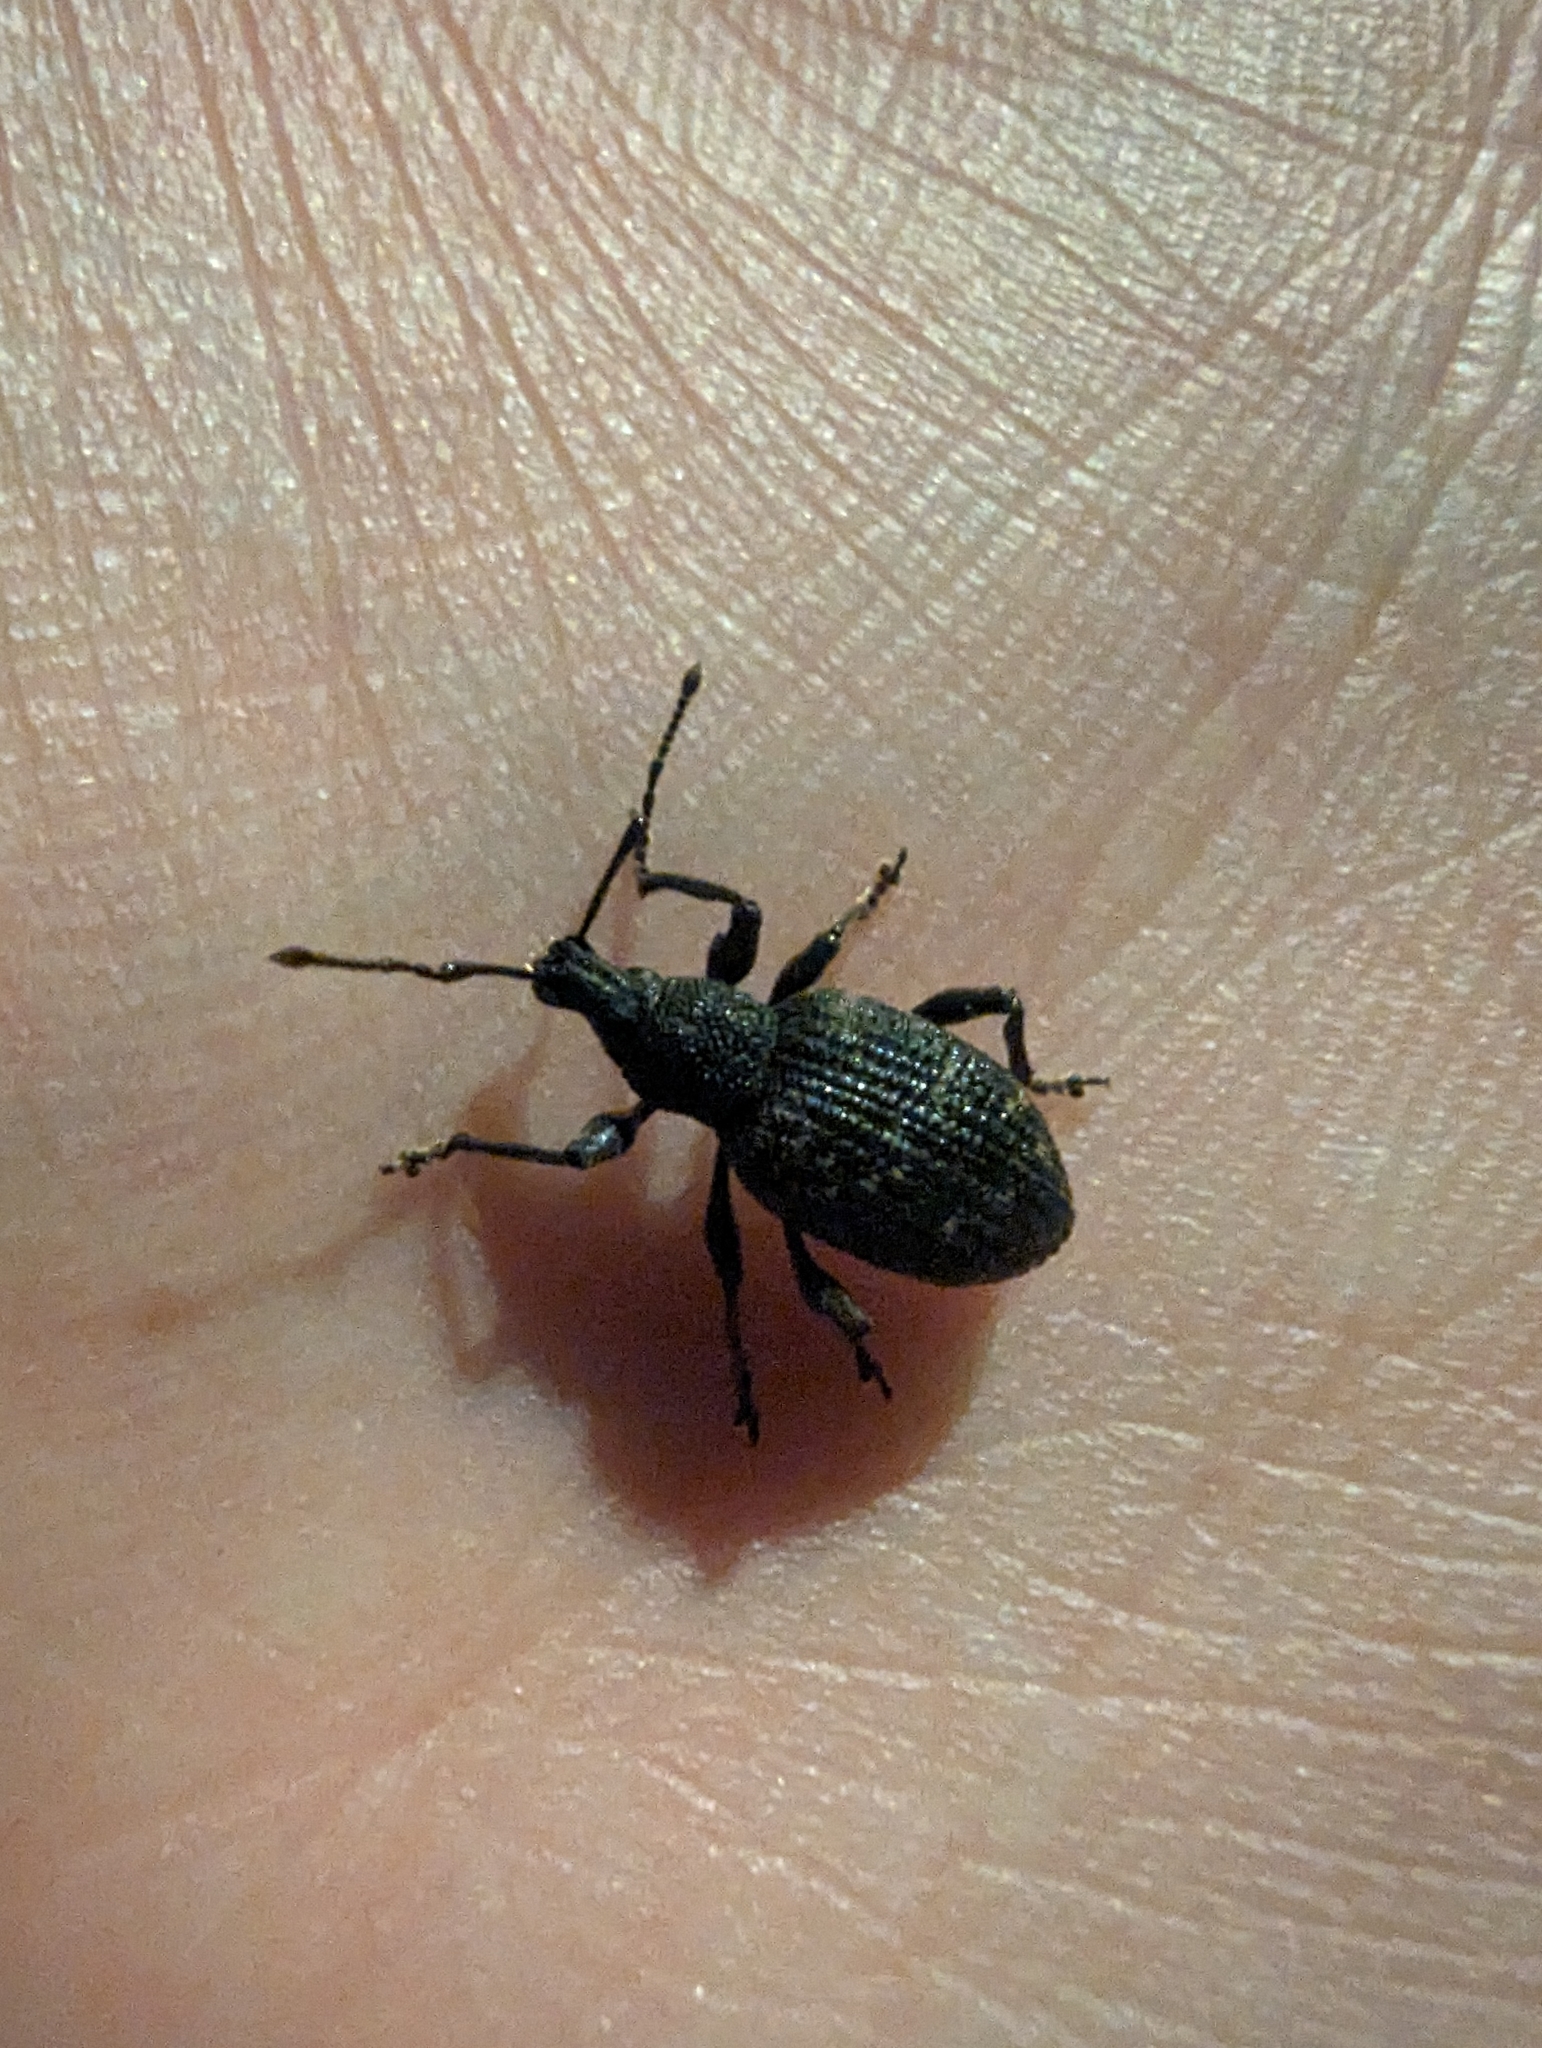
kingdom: Animalia
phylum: Arthropoda
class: Insecta
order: Coleoptera
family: Curculionidae
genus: Otiorhynchus
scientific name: Otiorhynchus sulcatus
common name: Black vine weevil
